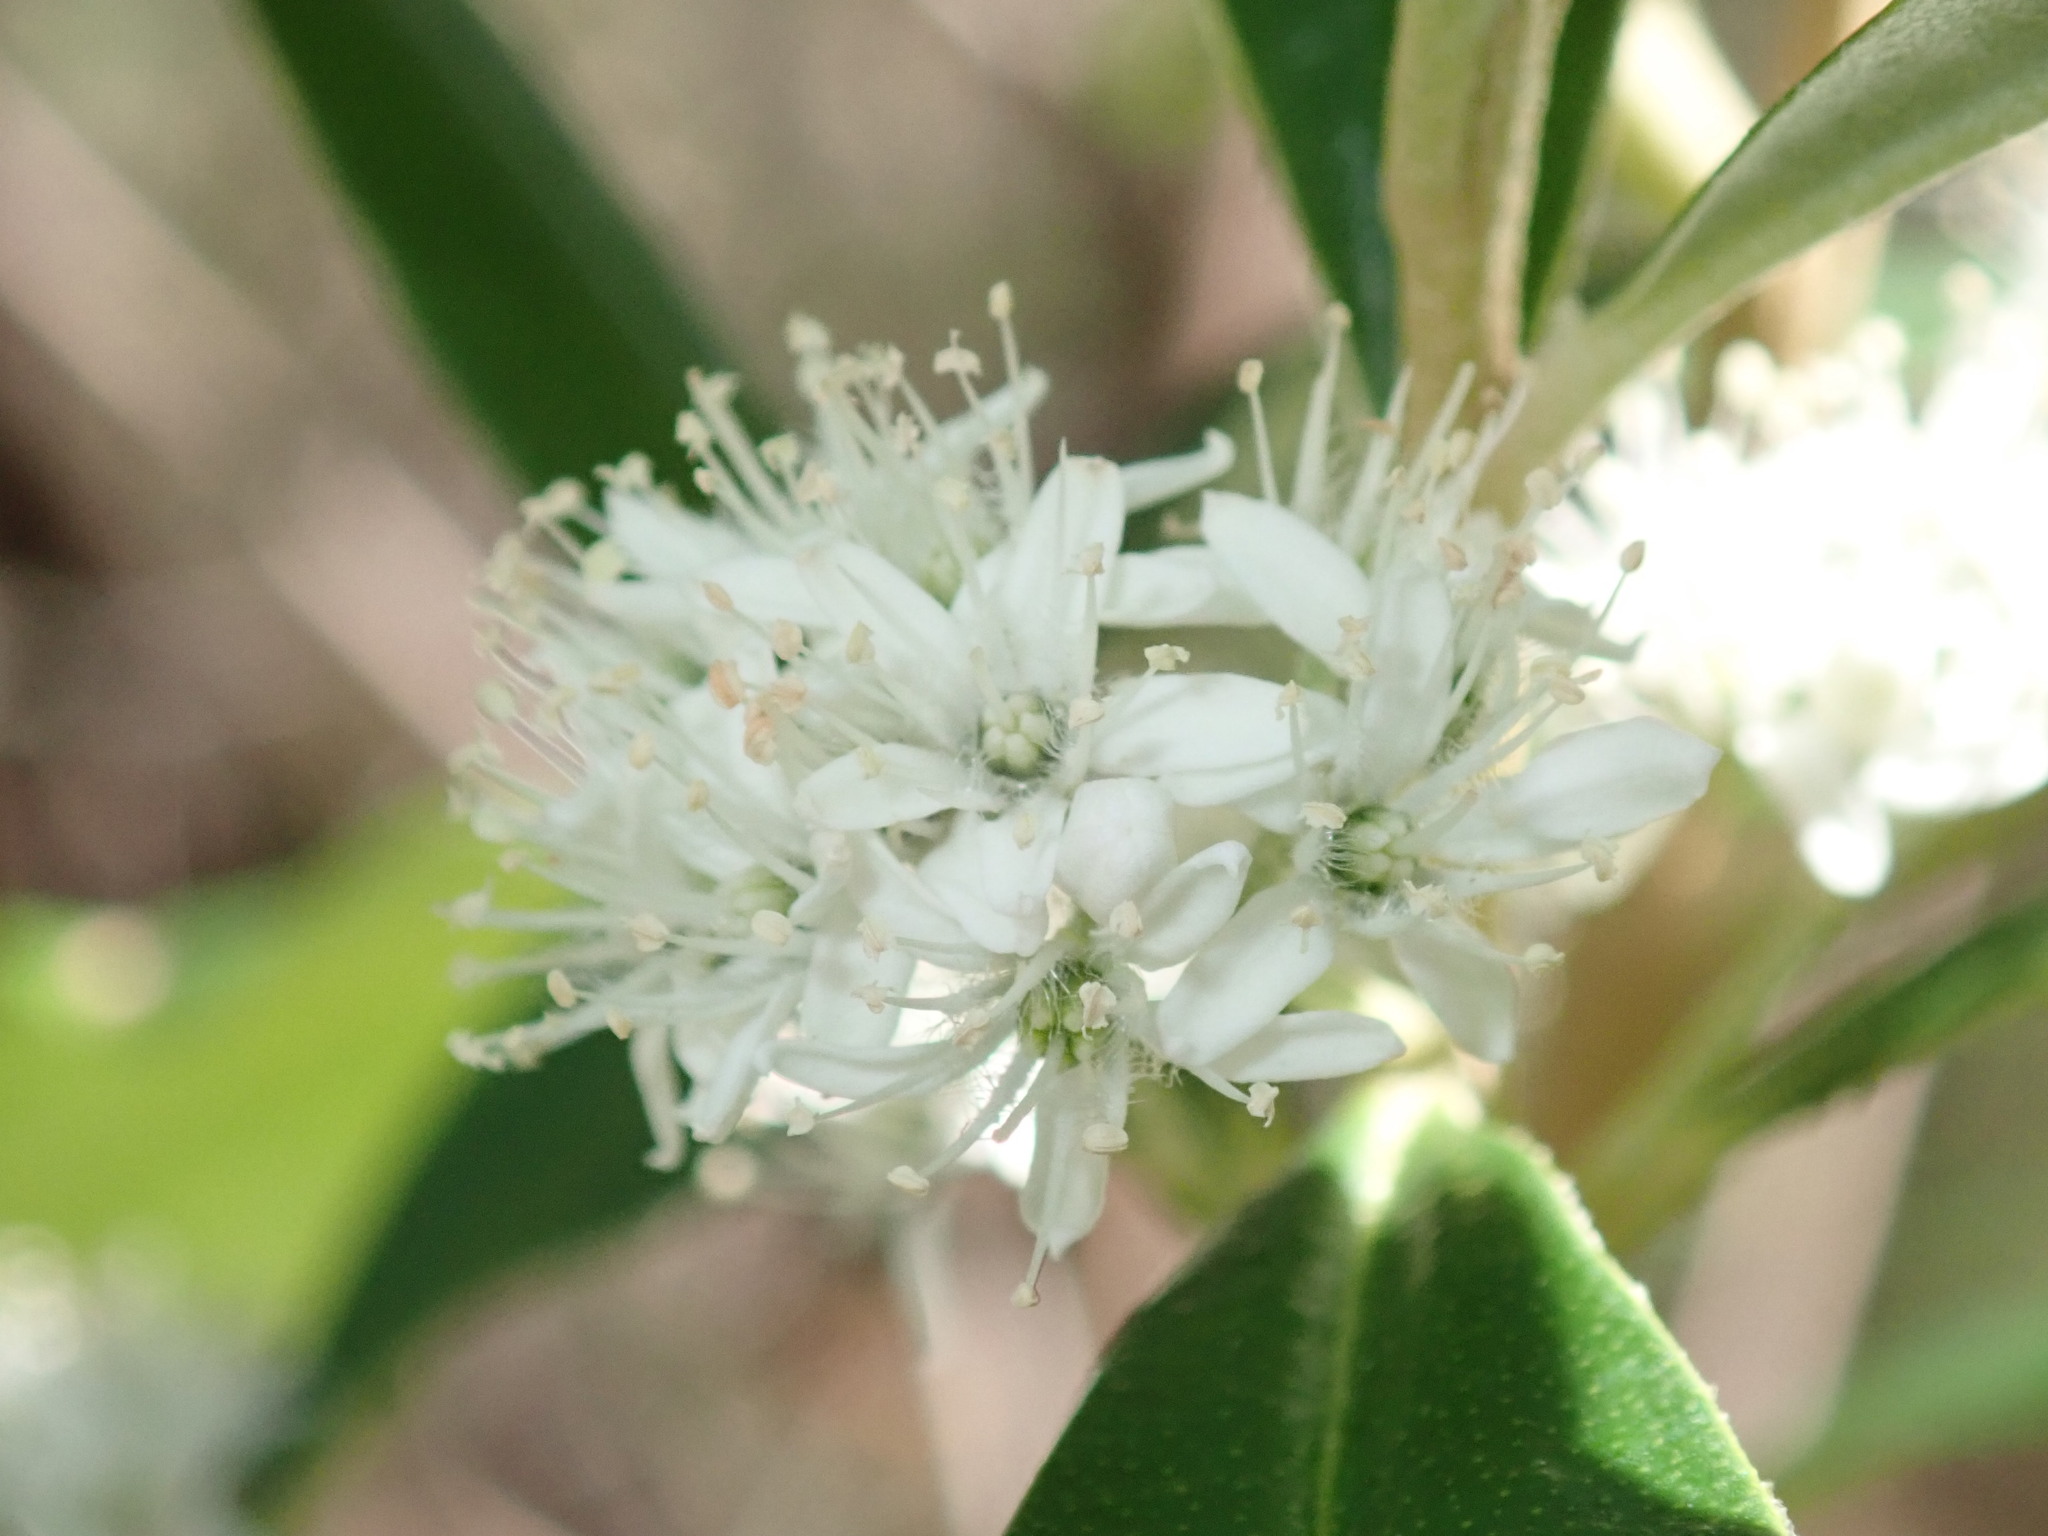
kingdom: Plantae
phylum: Tracheophyta
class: Magnoliopsida
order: Sapindales
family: Rutaceae
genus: Nematolepis
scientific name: Nematolepis squamea
